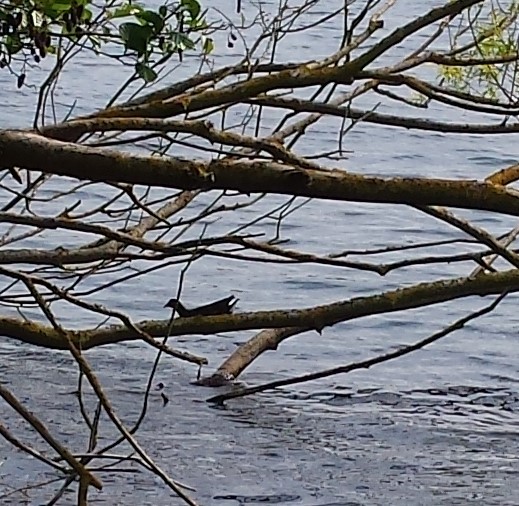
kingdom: Animalia
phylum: Chordata
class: Aves
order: Gruiformes
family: Rallidae
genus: Gallinula
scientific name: Gallinula chloropus
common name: Common moorhen
